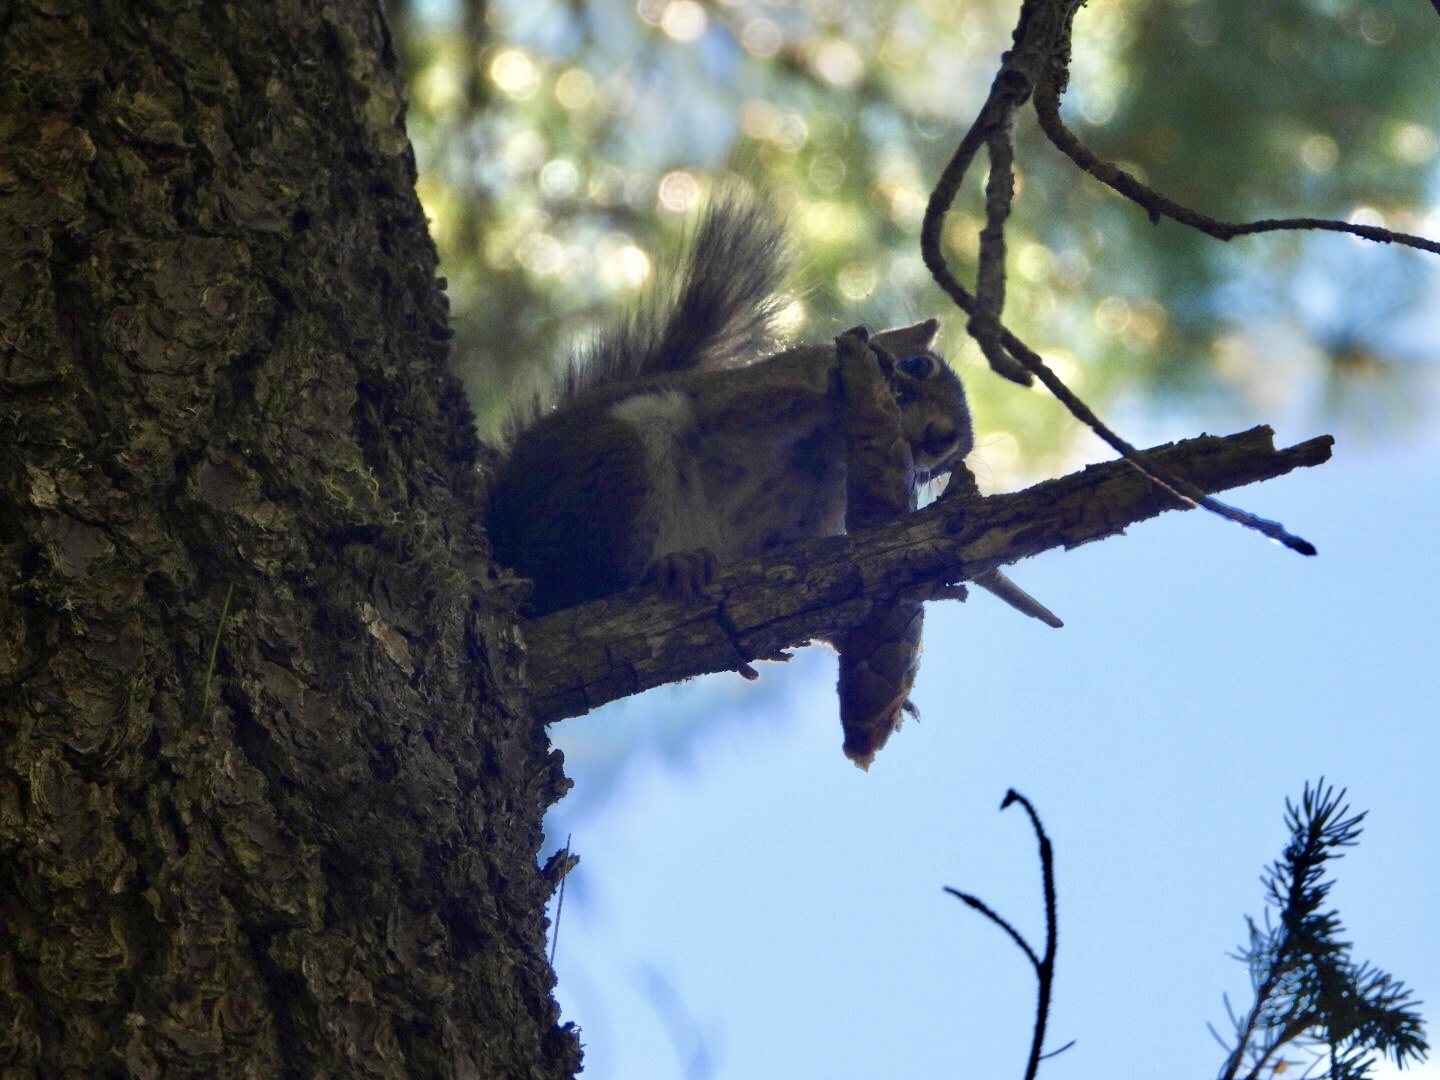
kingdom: Animalia
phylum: Chordata
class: Mammalia
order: Rodentia
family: Sciuridae
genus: Tamiasciurus
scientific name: Tamiasciurus hudsonicus
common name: Red squirrel
